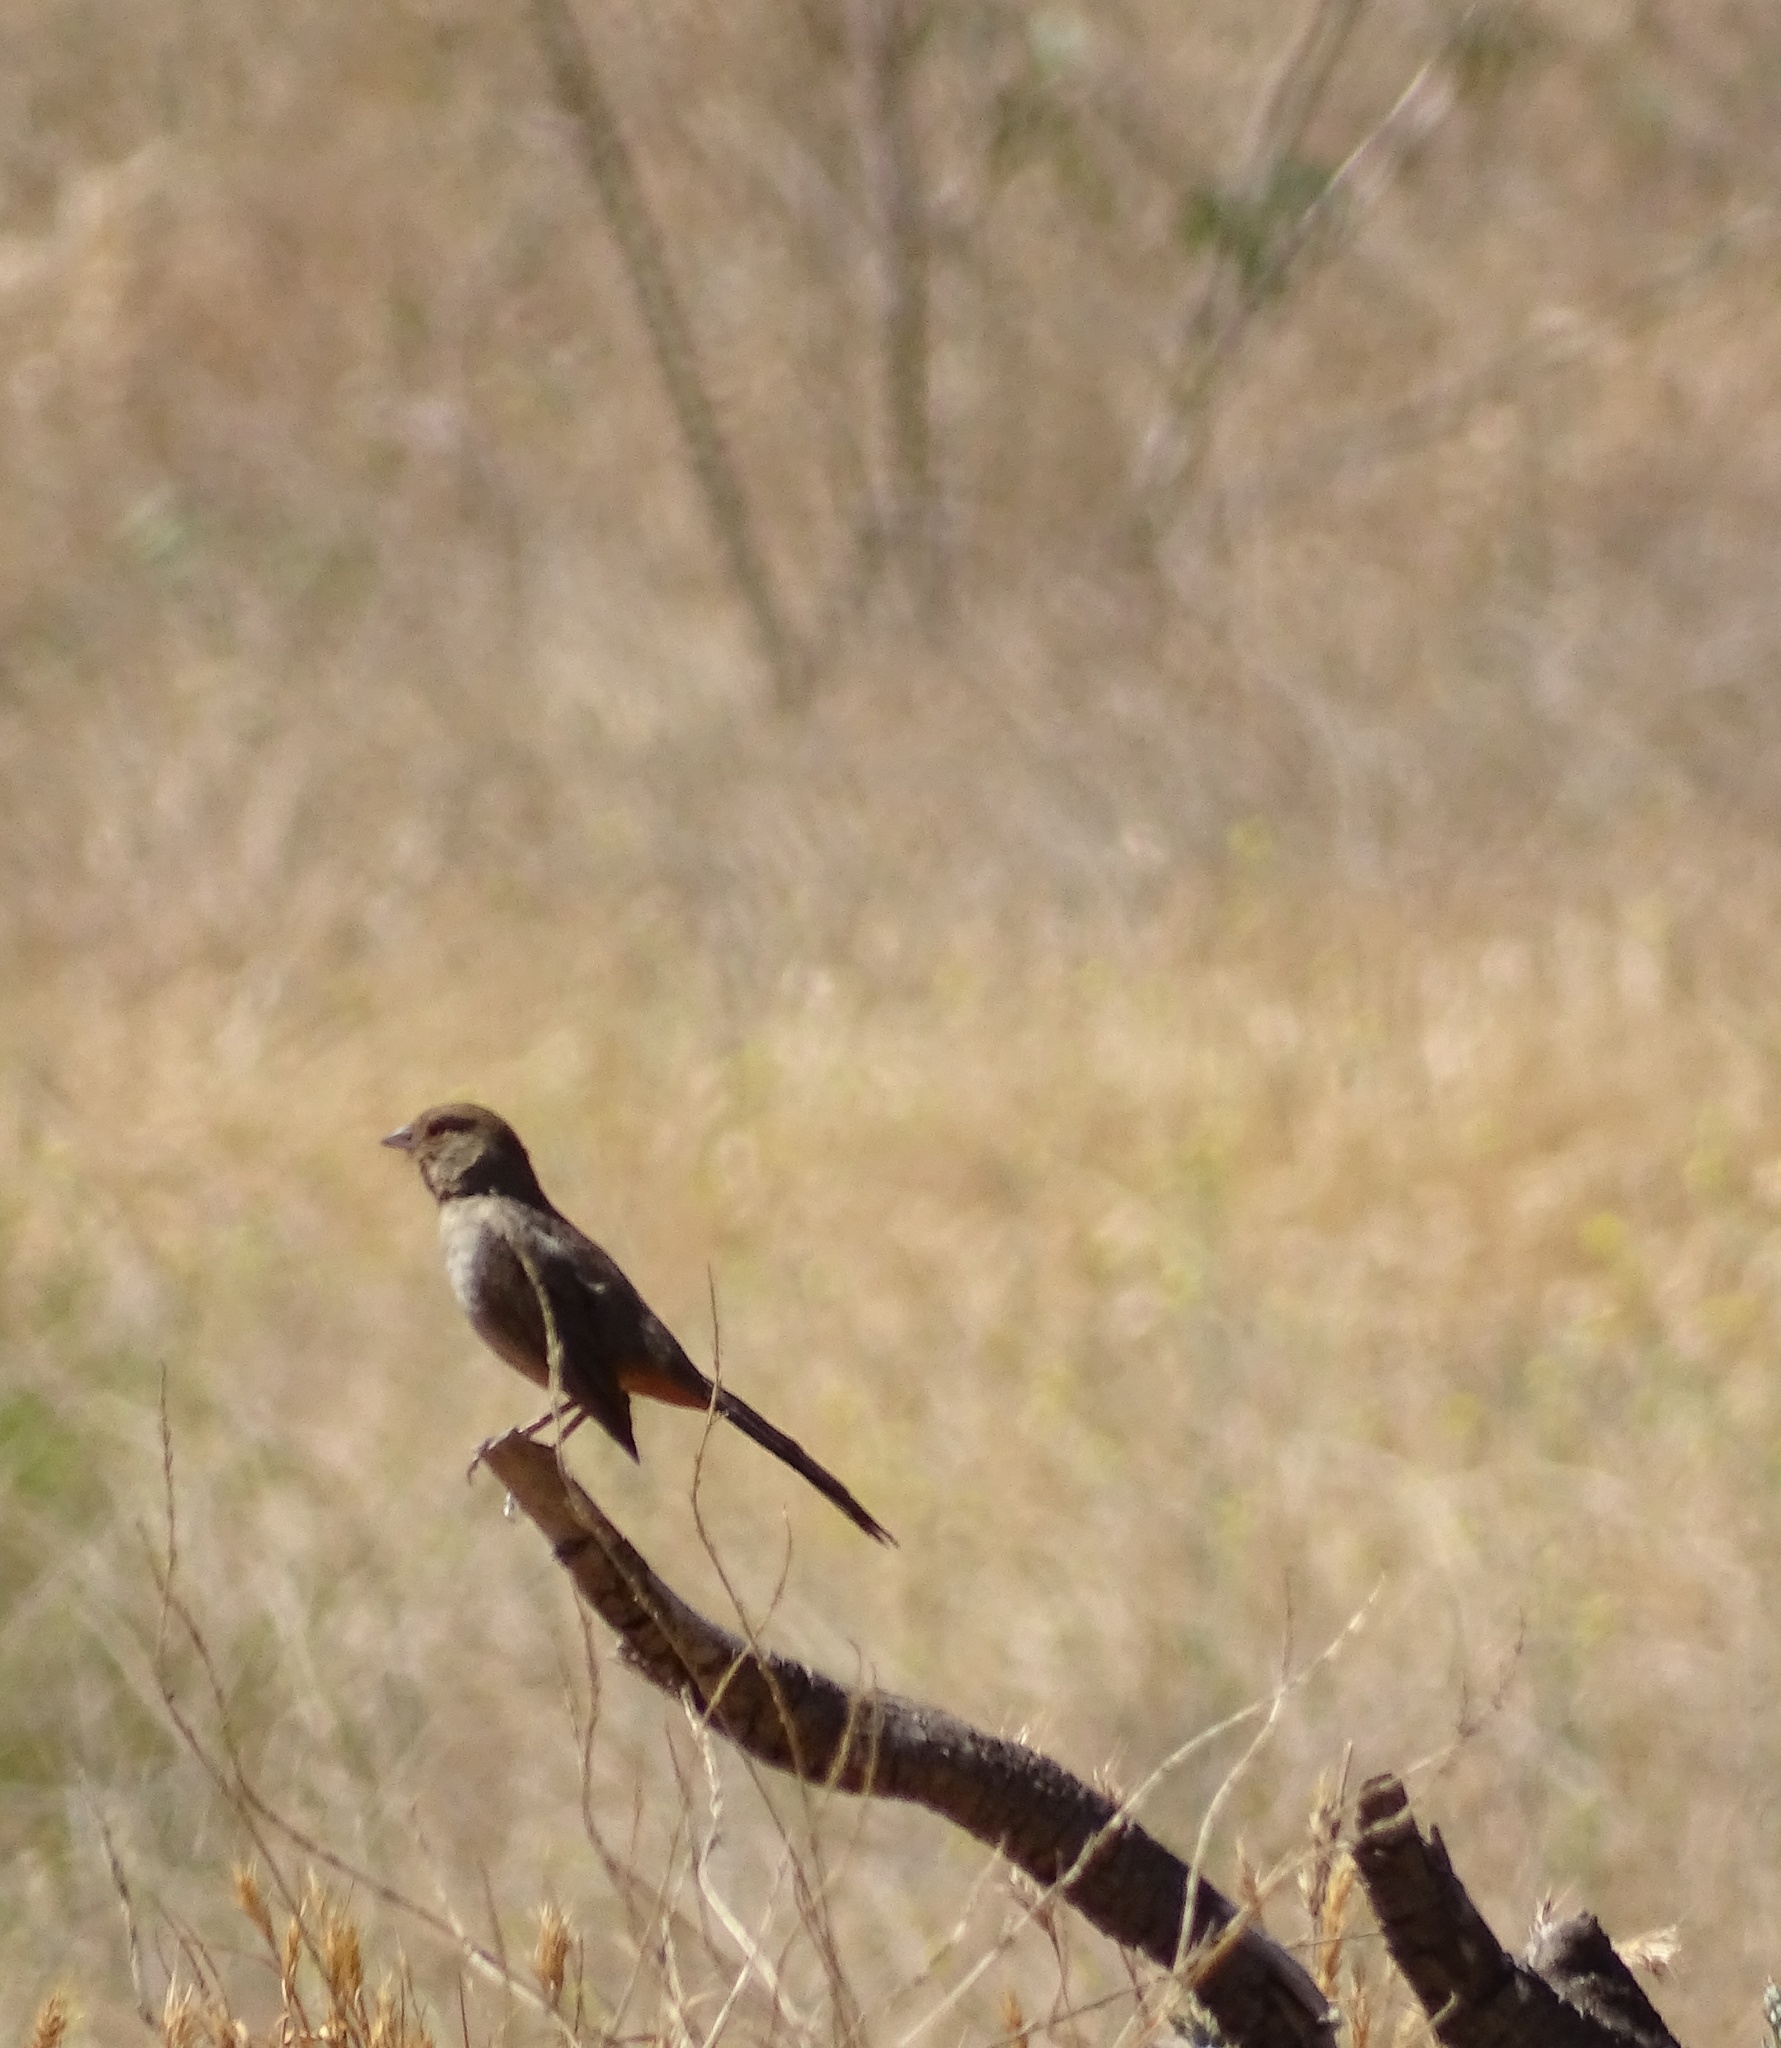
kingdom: Animalia
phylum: Chordata
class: Aves
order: Passeriformes
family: Passerellidae
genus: Melozone
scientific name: Melozone crissalis
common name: California towhee
